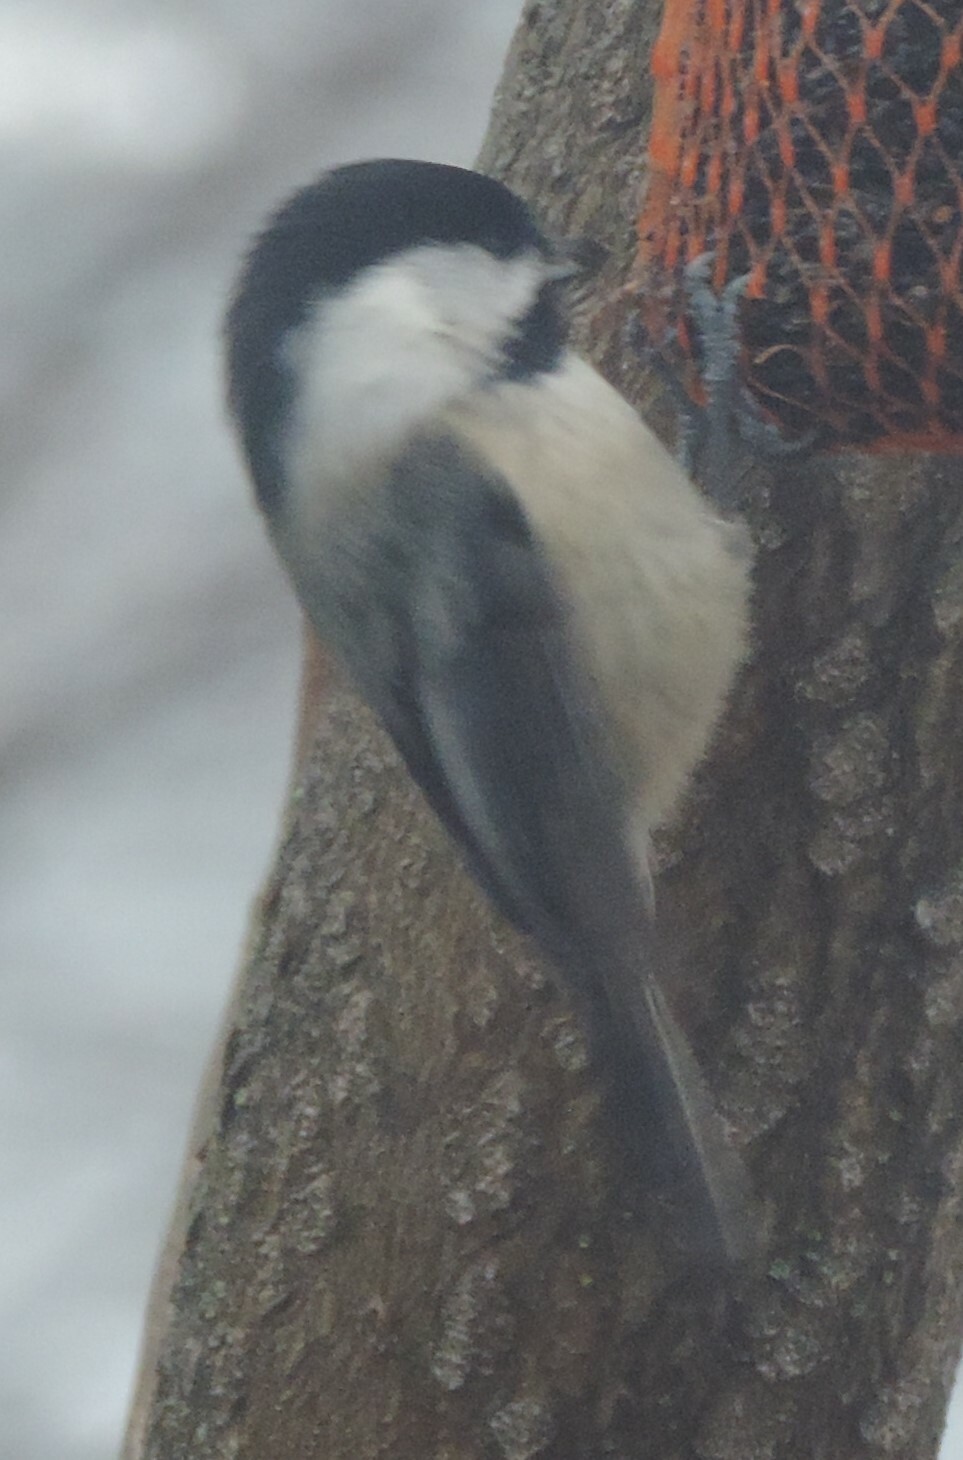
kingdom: Animalia
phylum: Chordata
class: Aves
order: Passeriformes
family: Paridae
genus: Poecile
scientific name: Poecile atricapillus
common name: Black-capped chickadee
